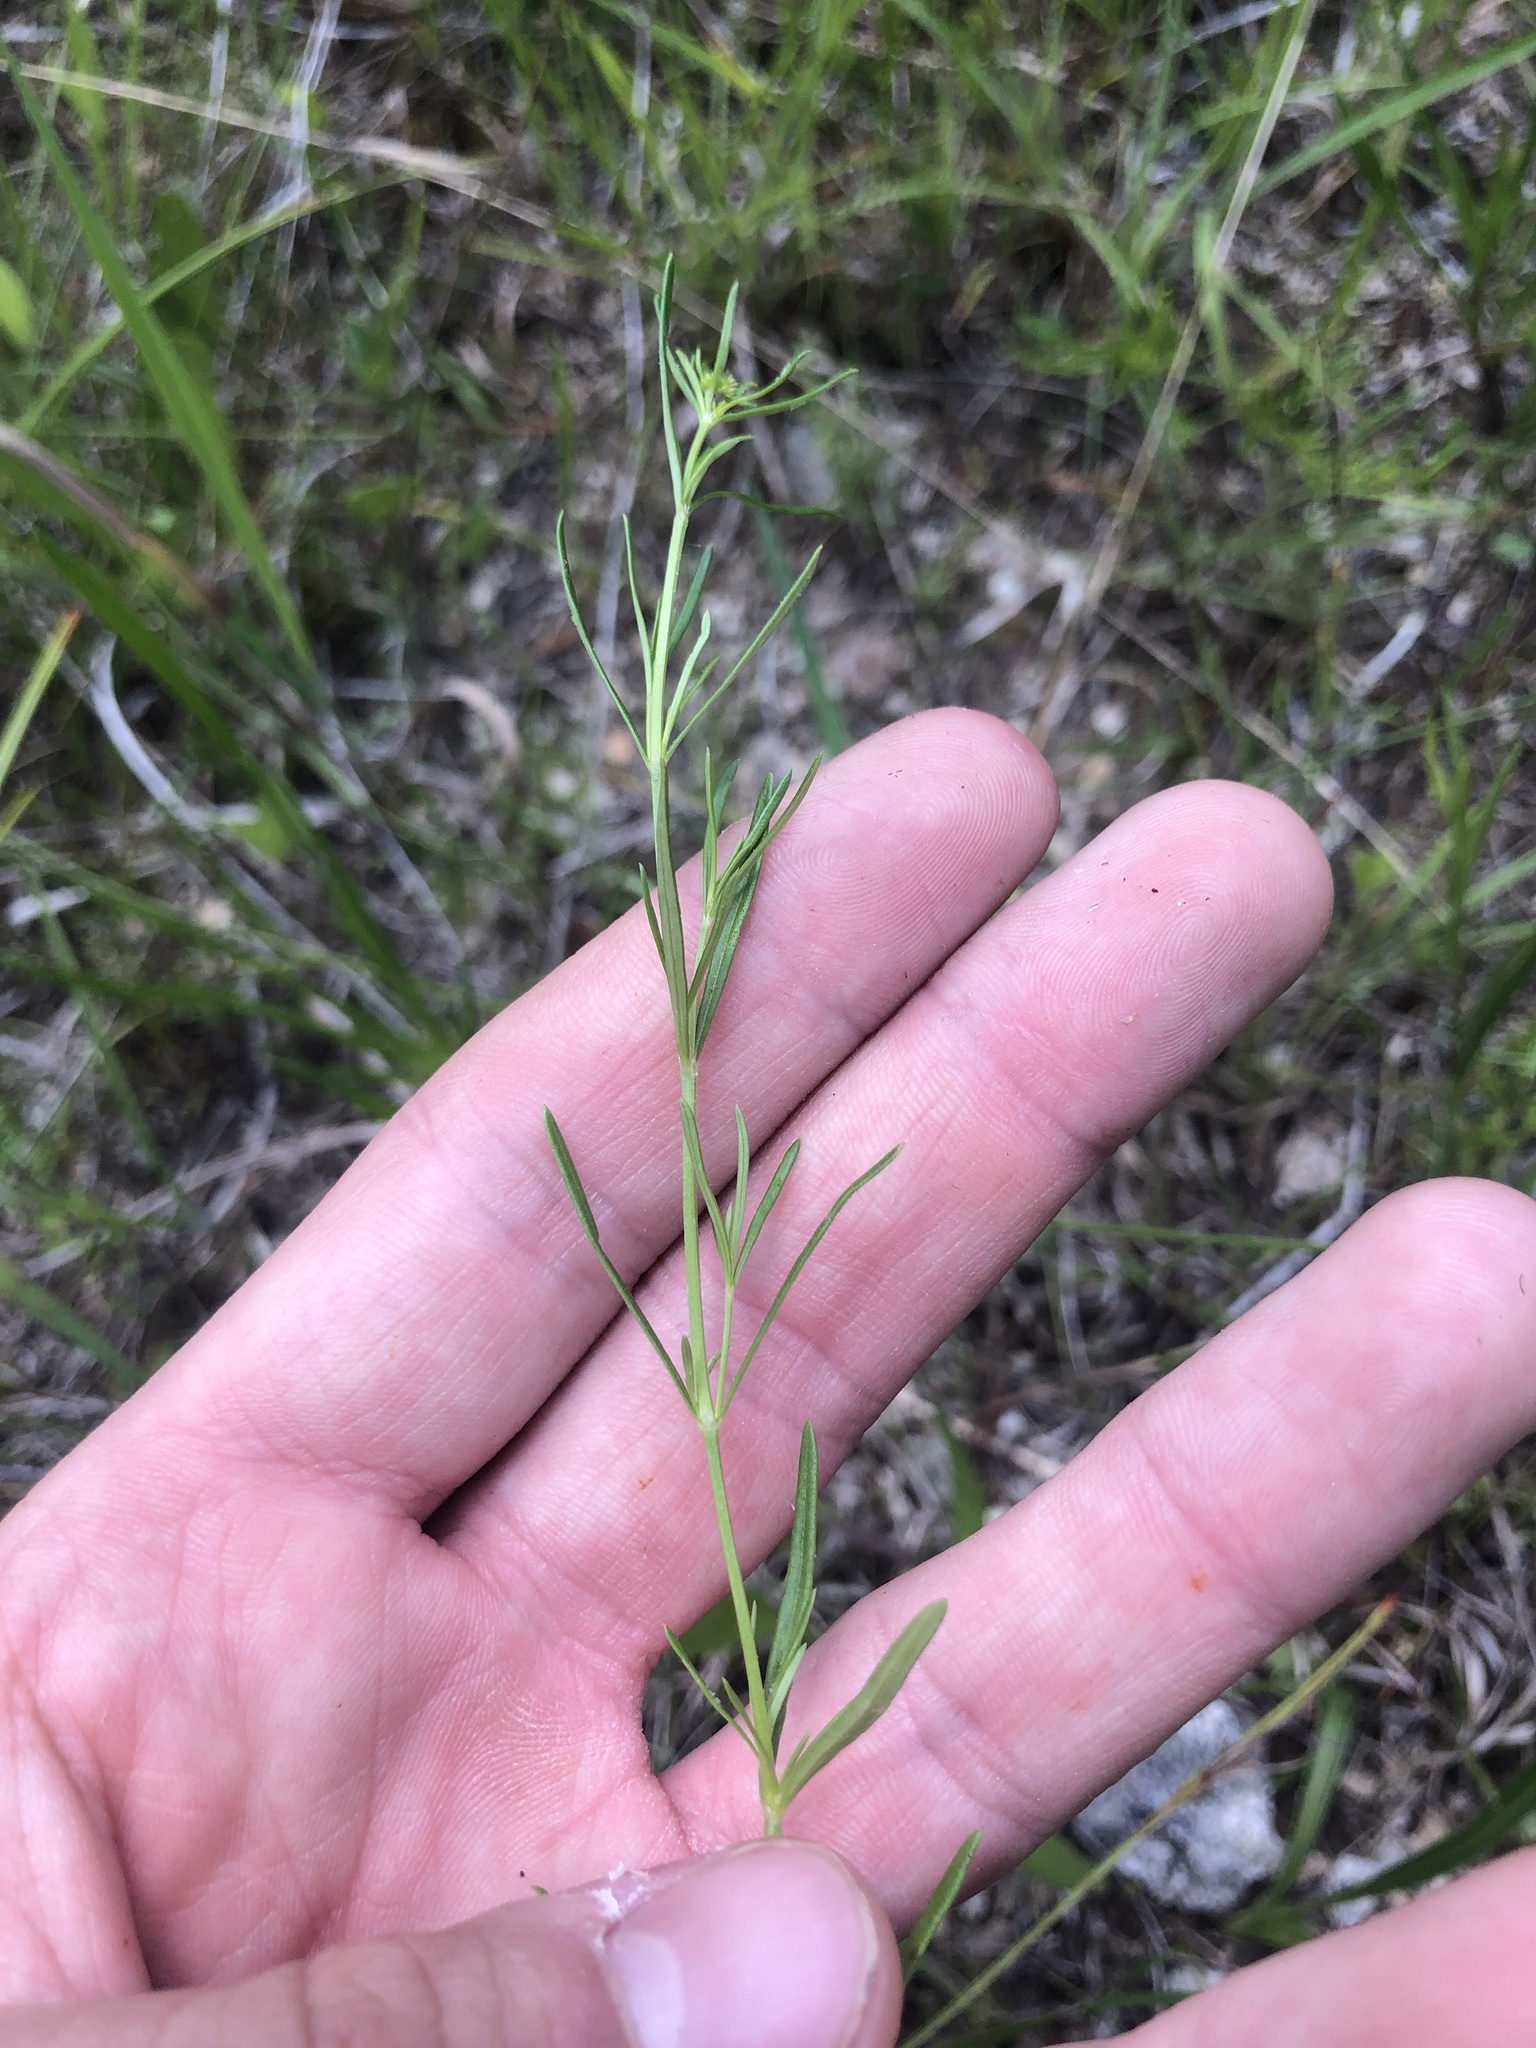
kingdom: Plantae
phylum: Tracheophyta
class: Magnoliopsida
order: Gentianales
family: Rubiaceae
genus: Stenaria
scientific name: Stenaria nigricans
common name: Diamondflowers
